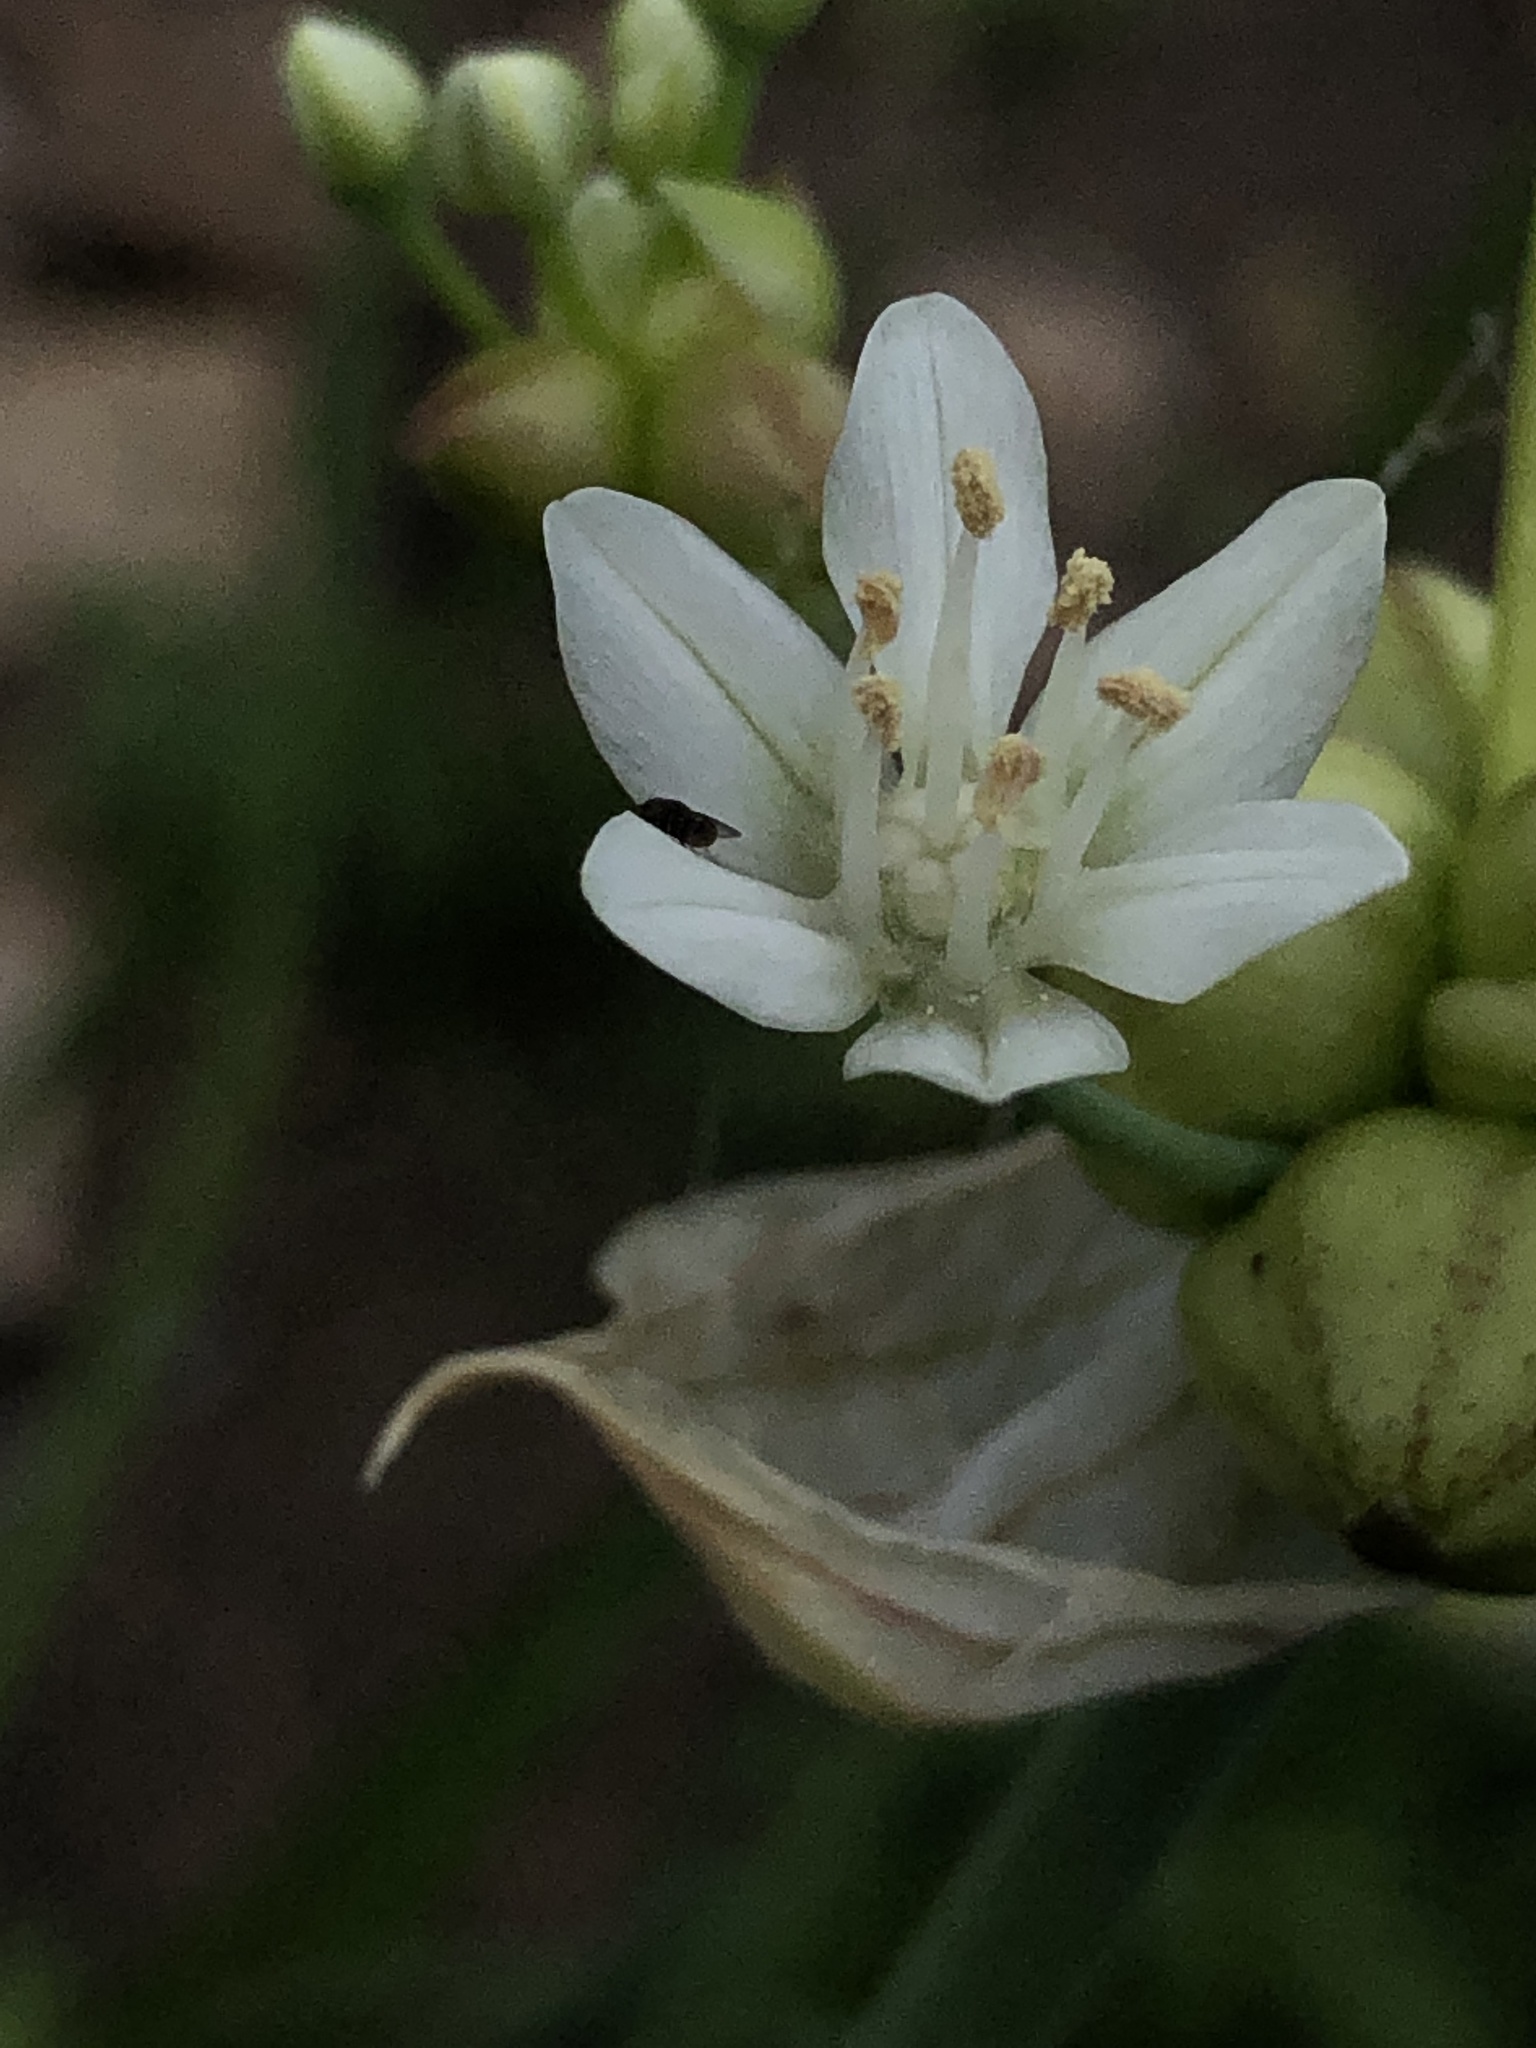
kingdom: Plantae
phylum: Tracheophyta
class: Liliopsida
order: Asparagales
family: Amaryllidaceae
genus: Allium
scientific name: Allium canadense
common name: Meadow garlic
